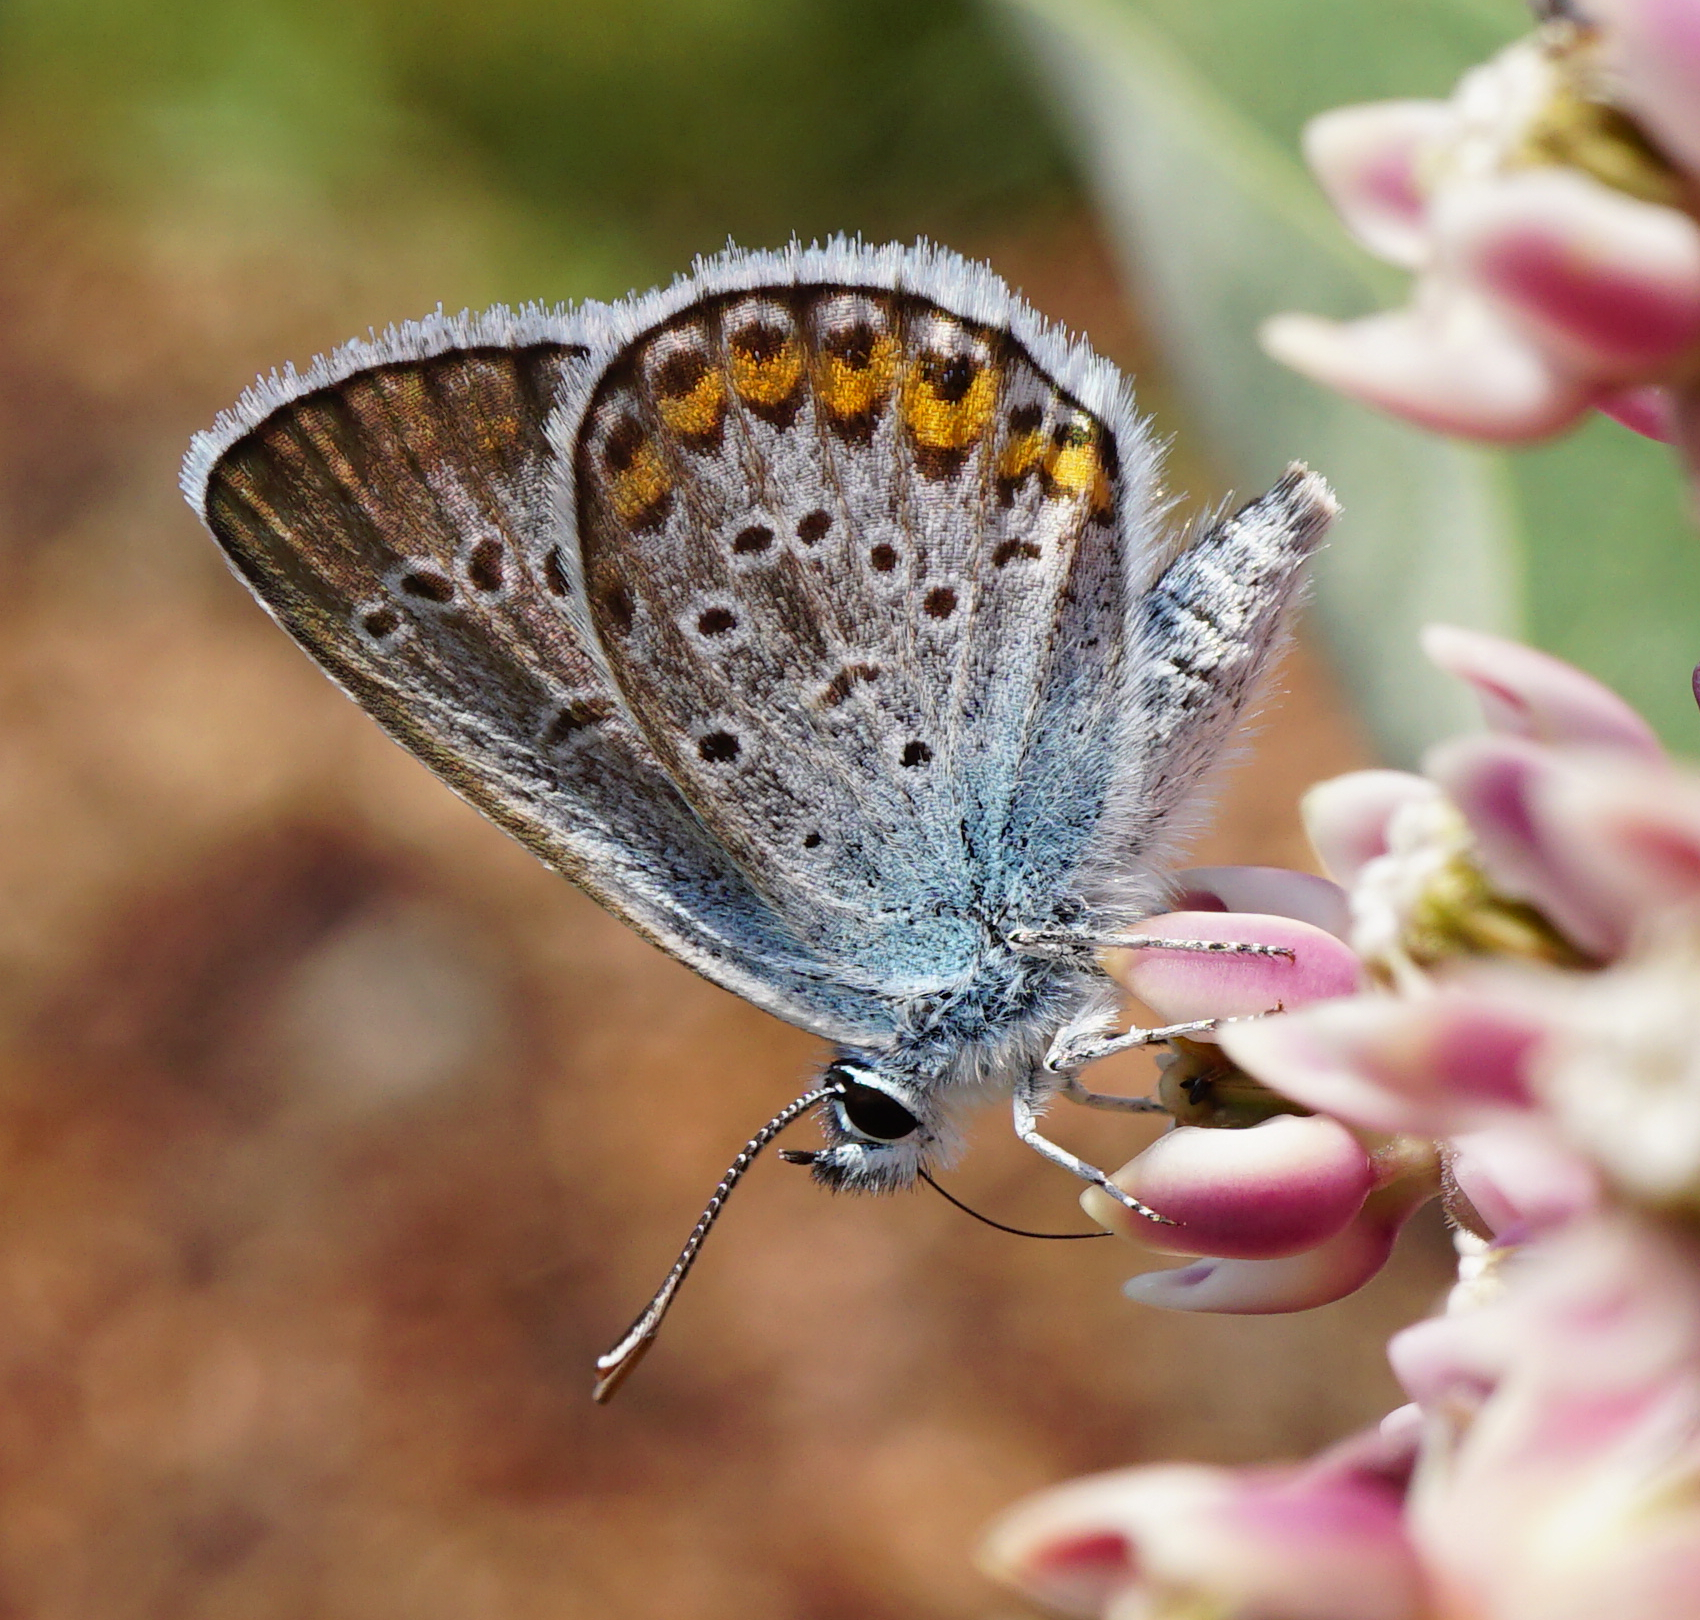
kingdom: Animalia
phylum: Arthropoda
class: Insecta
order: Lepidoptera
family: Lycaenidae
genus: Plebejus
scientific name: Plebejus argus
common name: Silver-studded blue
